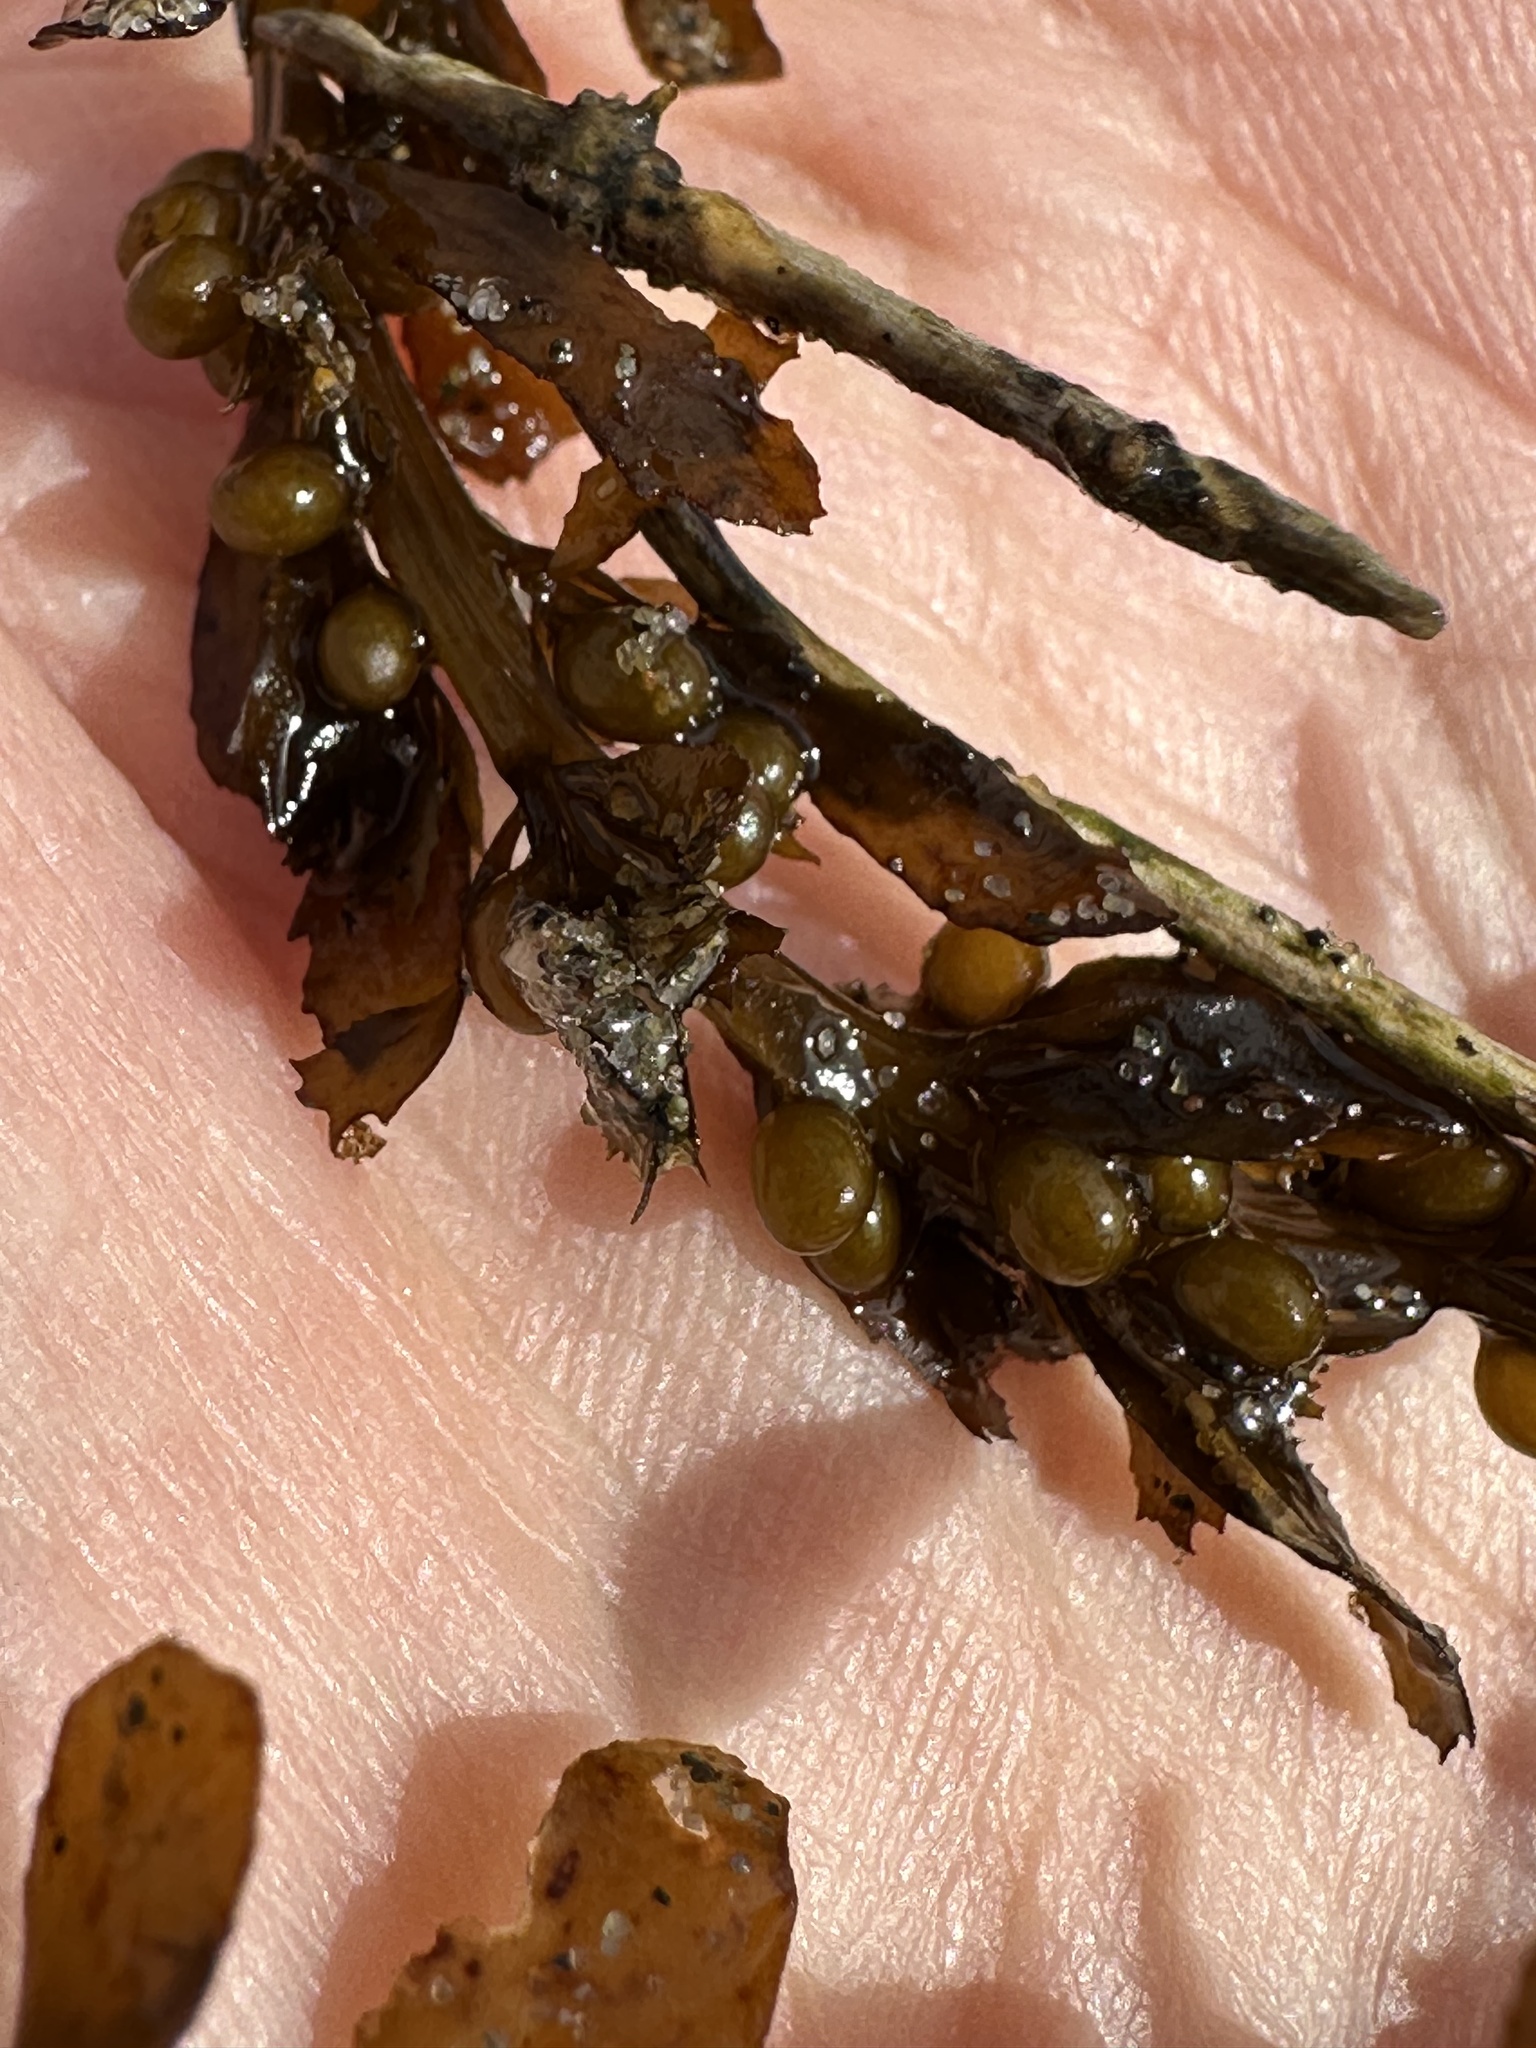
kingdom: Chromista
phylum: Ochrophyta
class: Phaeophyceae
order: Fucales
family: Sargassaceae
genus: Sargassum
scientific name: Sargassum muticum
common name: Japweed
